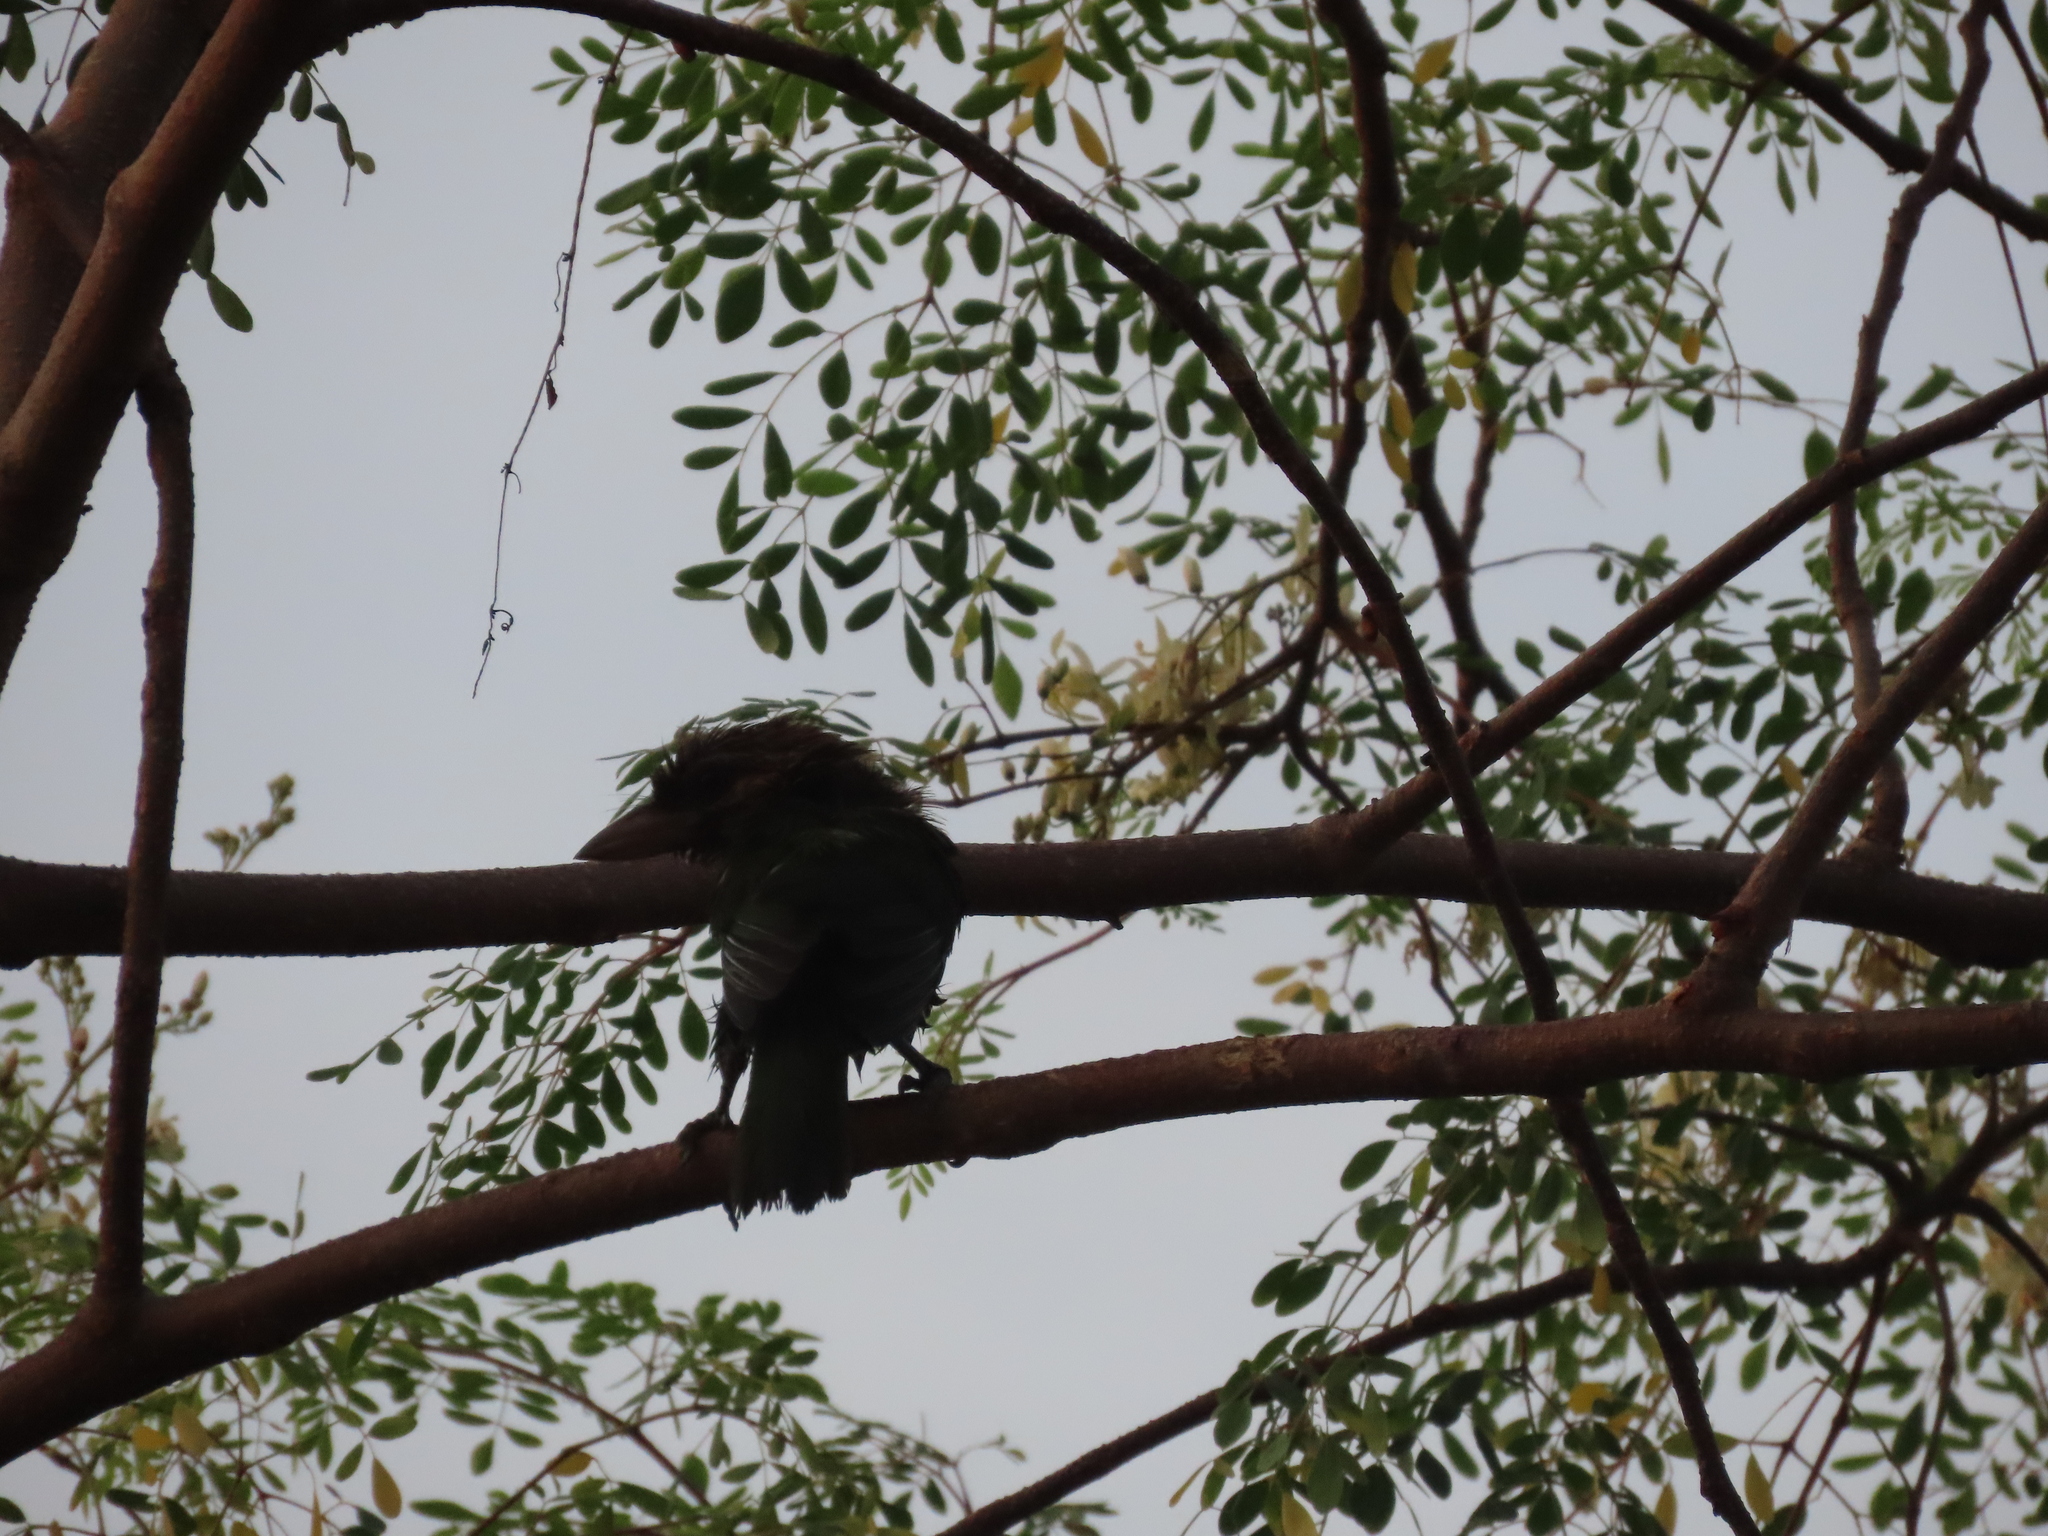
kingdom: Animalia
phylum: Chordata
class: Aves
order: Piciformes
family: Megalaimidae
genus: Psilopogon
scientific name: Psilopogon viridis
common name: White-cheeked barbet
